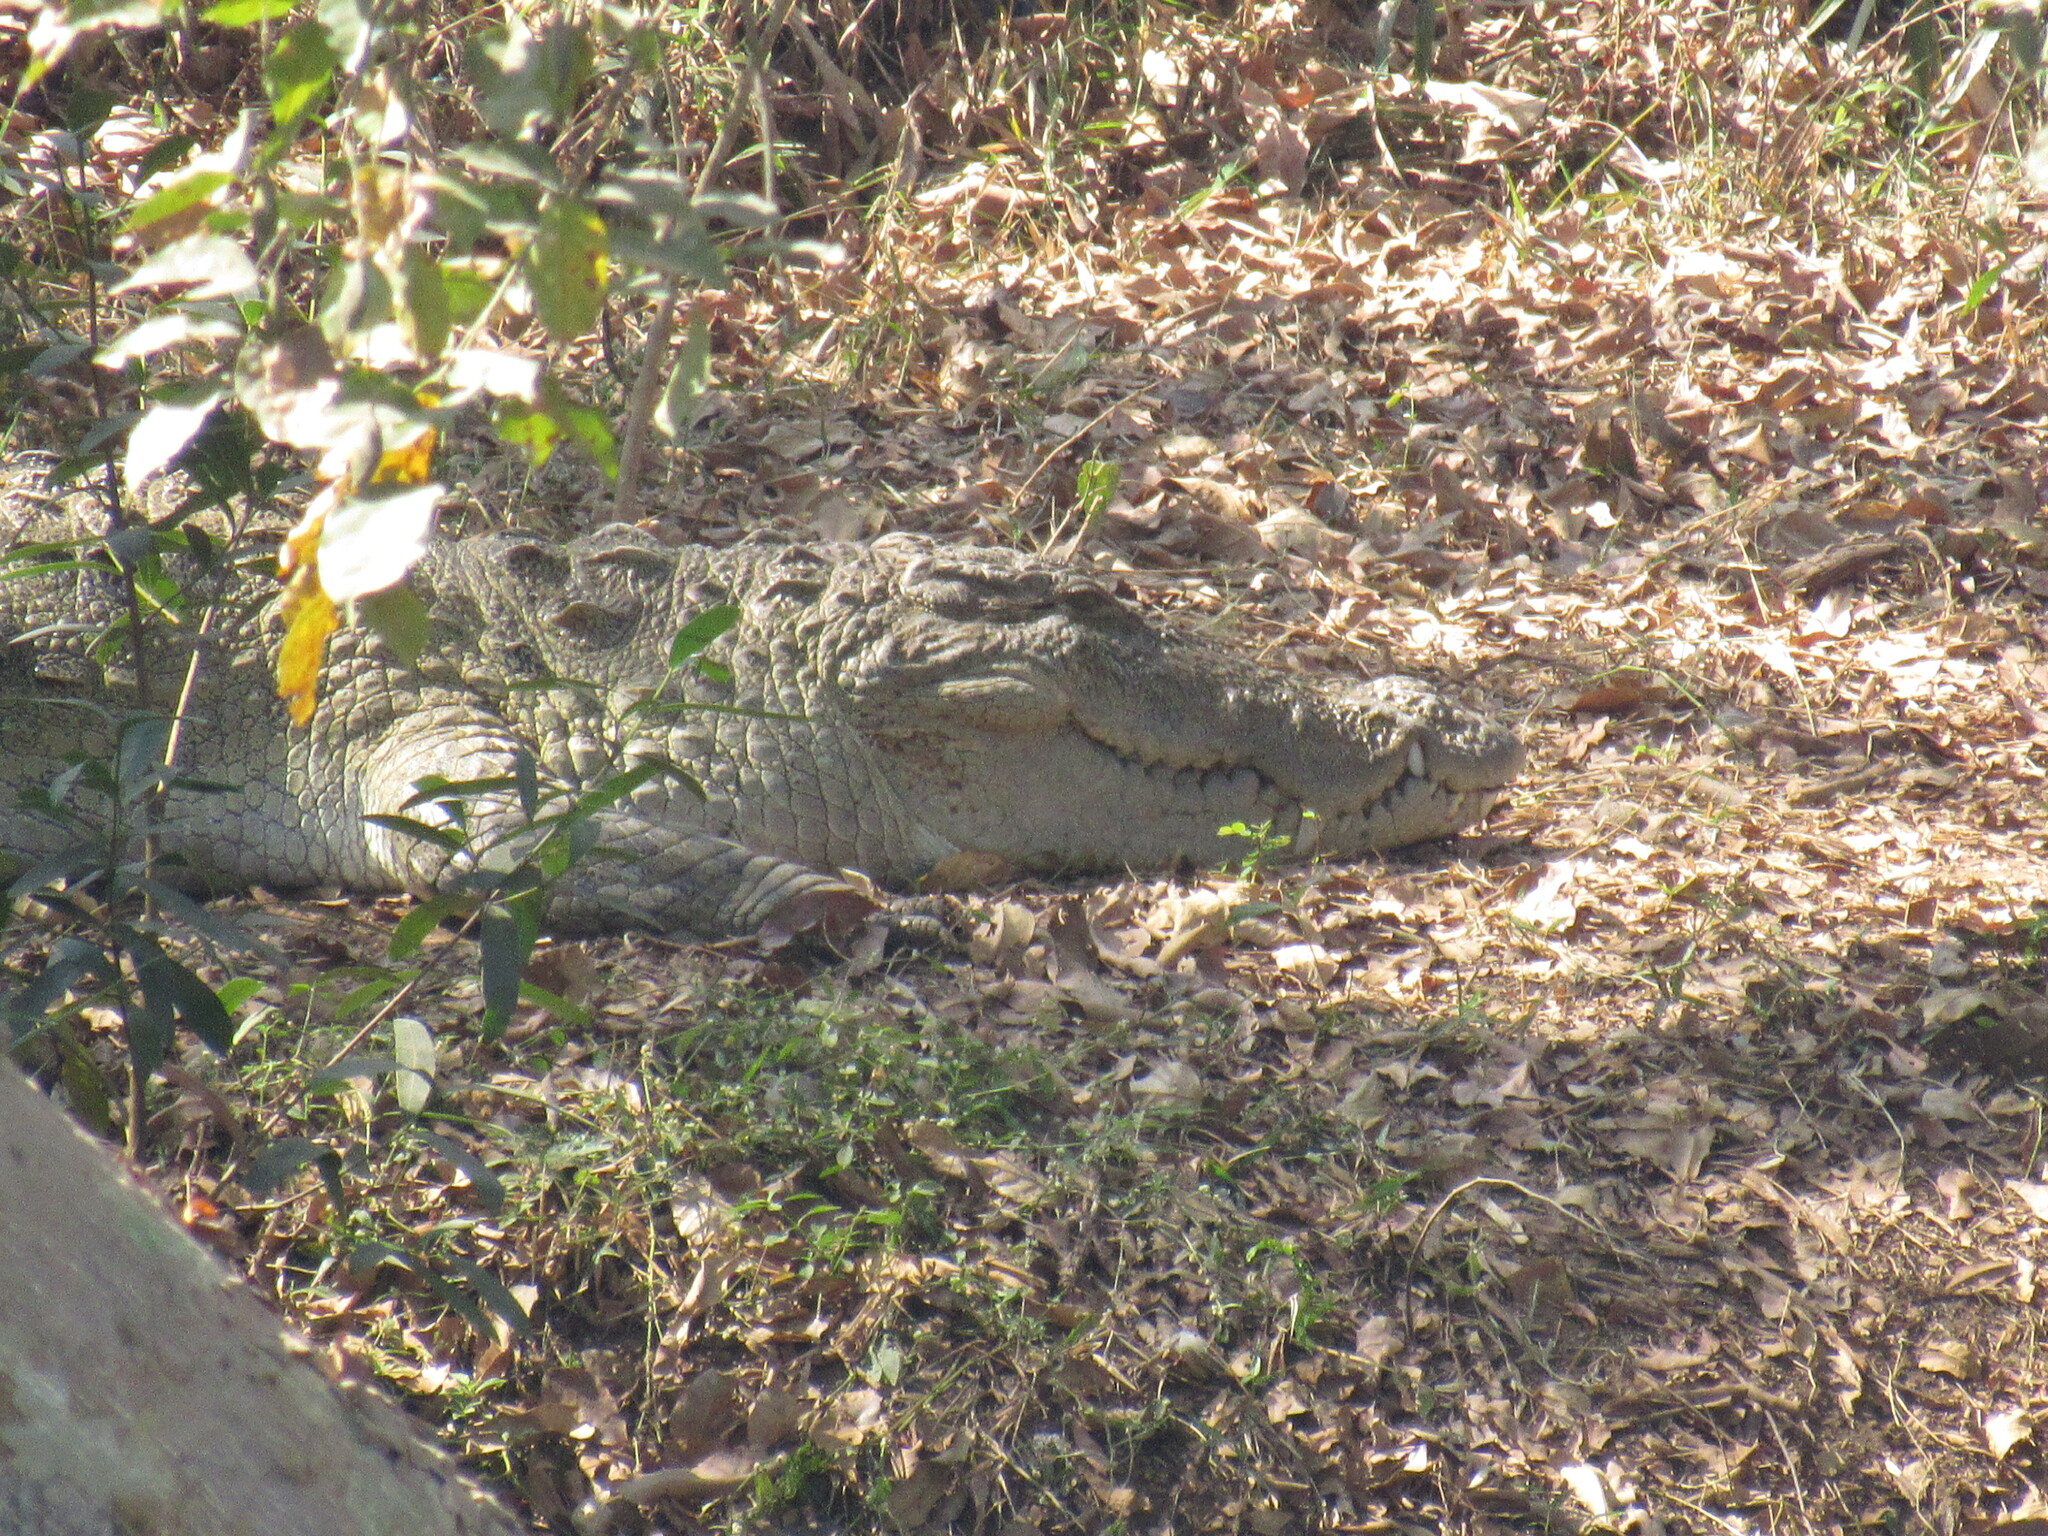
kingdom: Animalia
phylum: Chordata
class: Crocodylia
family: Crocodylidae
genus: Crocodylus
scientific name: Crocodylus palustris
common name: Mugger crocodile
